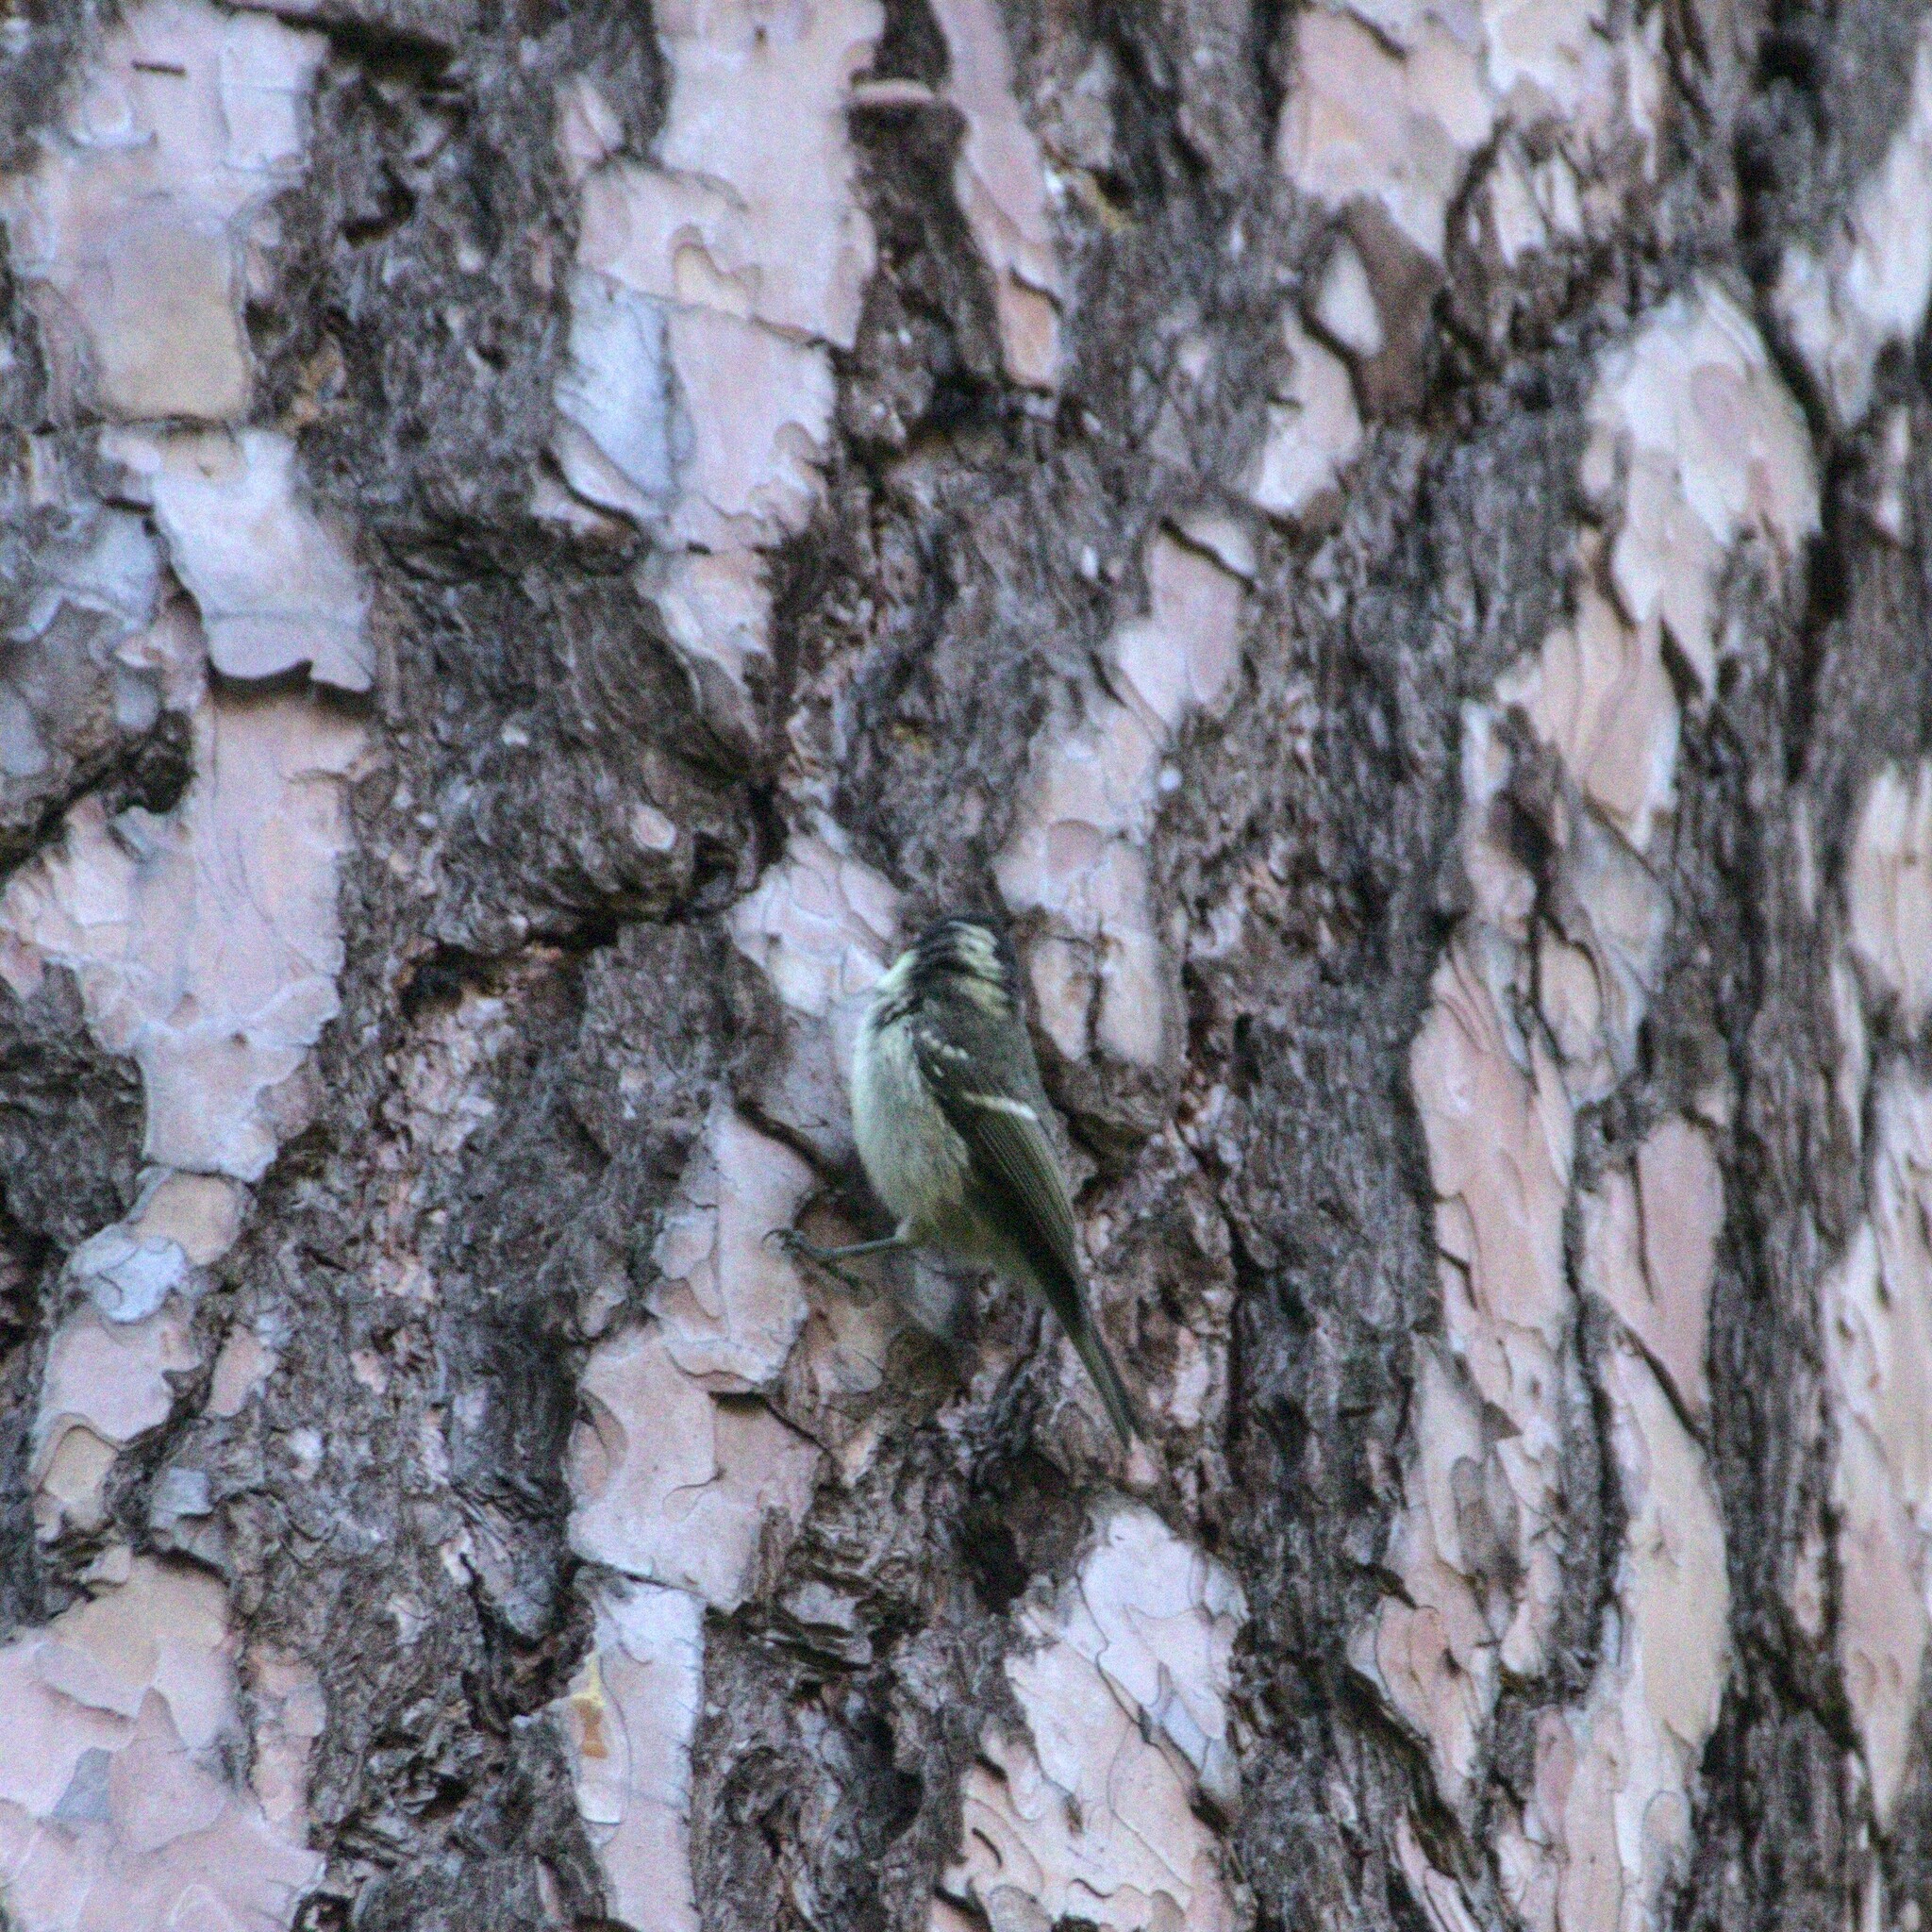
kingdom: Animalia
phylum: Chordata
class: Aves
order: Passeriformes
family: Paridae
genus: Periparus
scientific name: Periparus ater
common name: Coal tit
